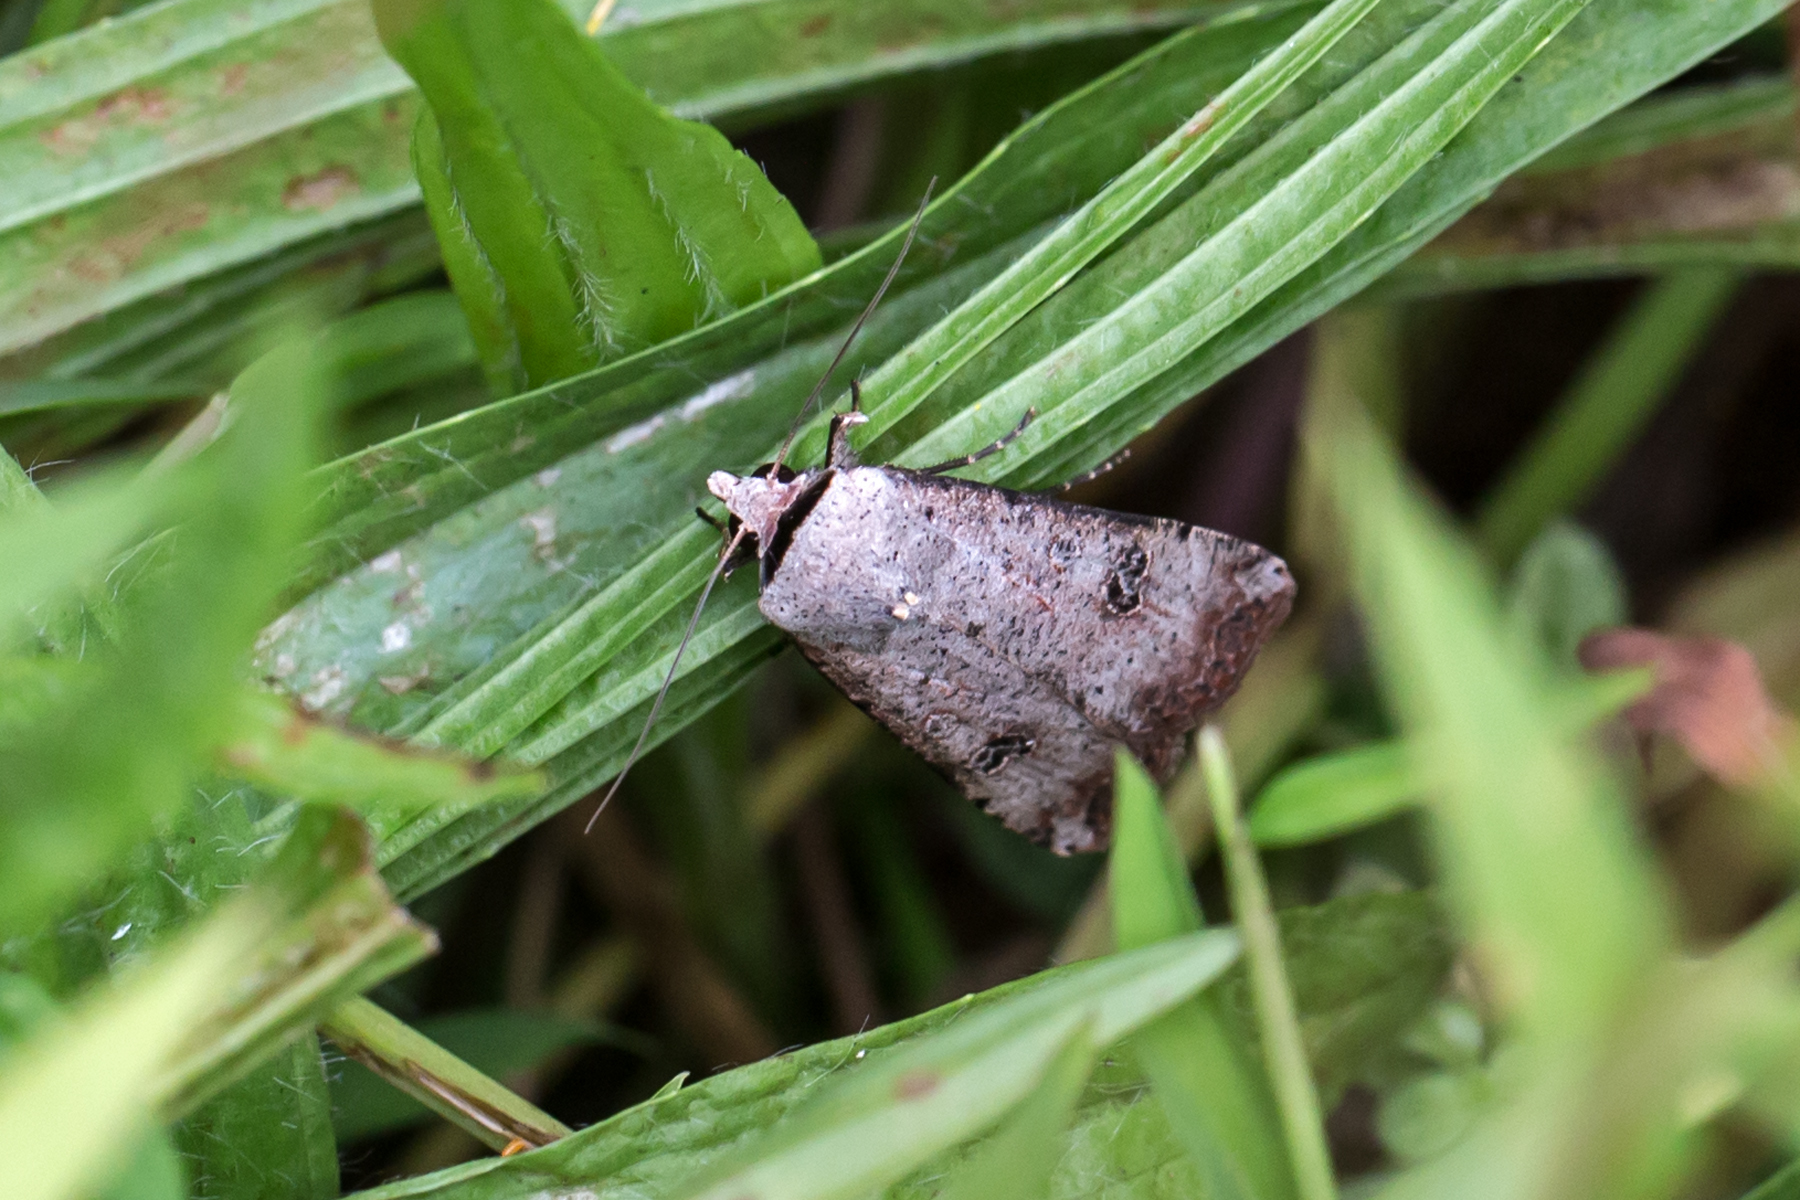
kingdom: Animalia
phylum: Arthropoda
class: Insecta
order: Lepidoptera
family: Noctuidae
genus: Anicla
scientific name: Anicla infecta
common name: Green cutworm
